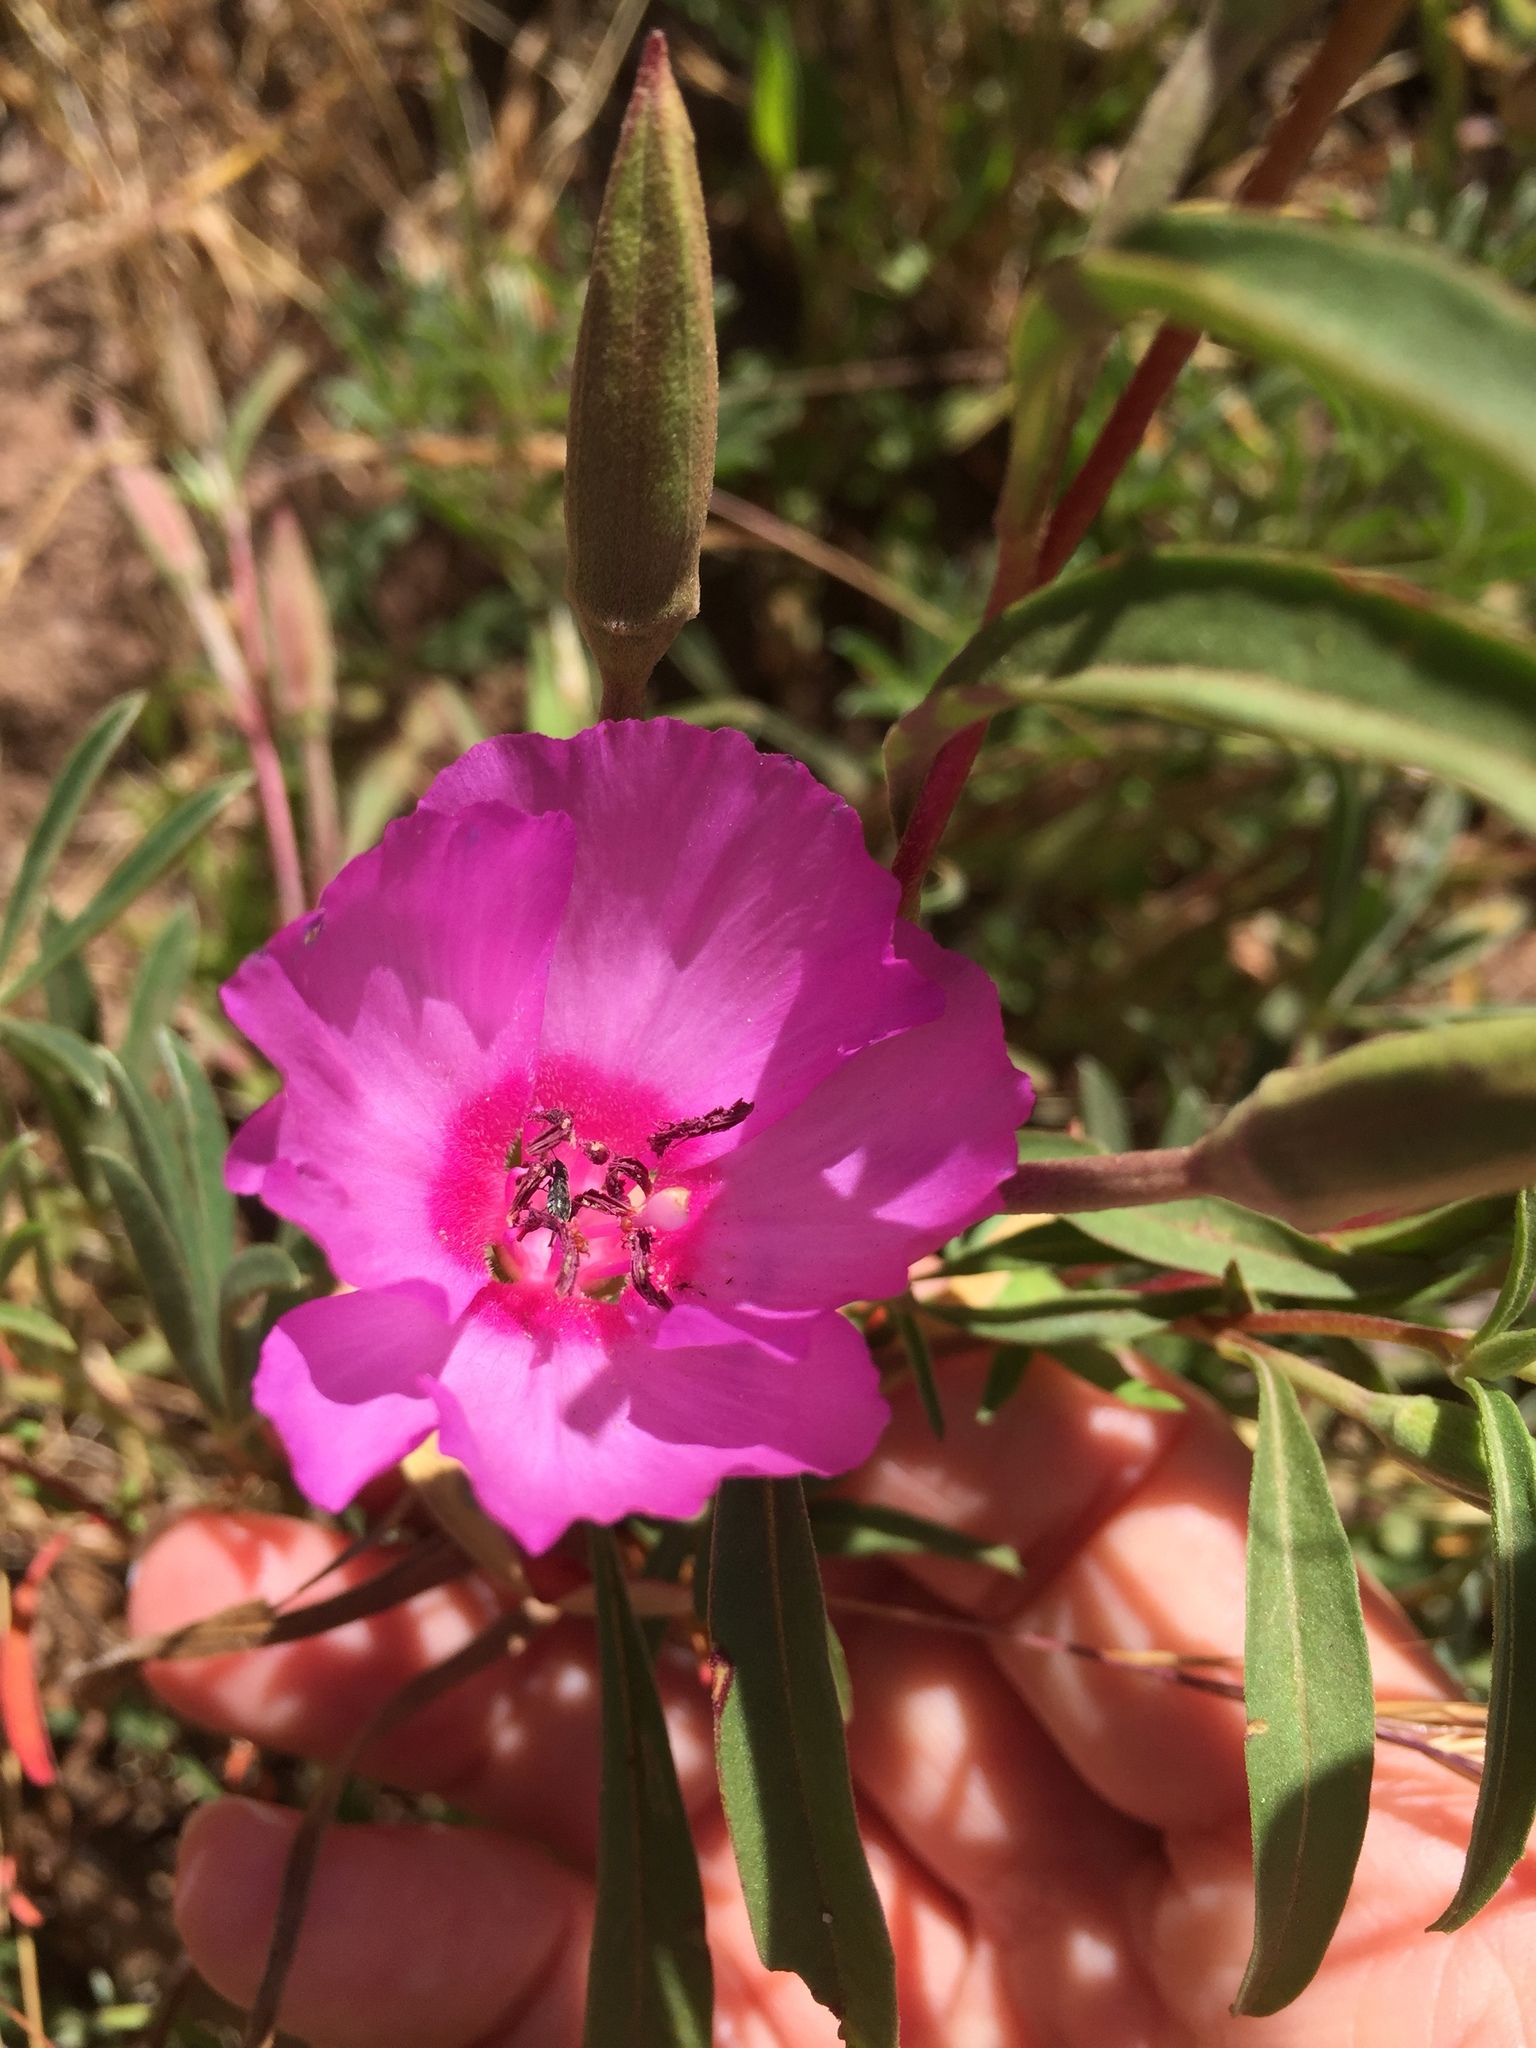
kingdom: Plantae
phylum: Tracheophyta
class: Magnoliopsida
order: Myrtales
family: Onagraceae
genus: Clarkia
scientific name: Clarkia rubicunda
